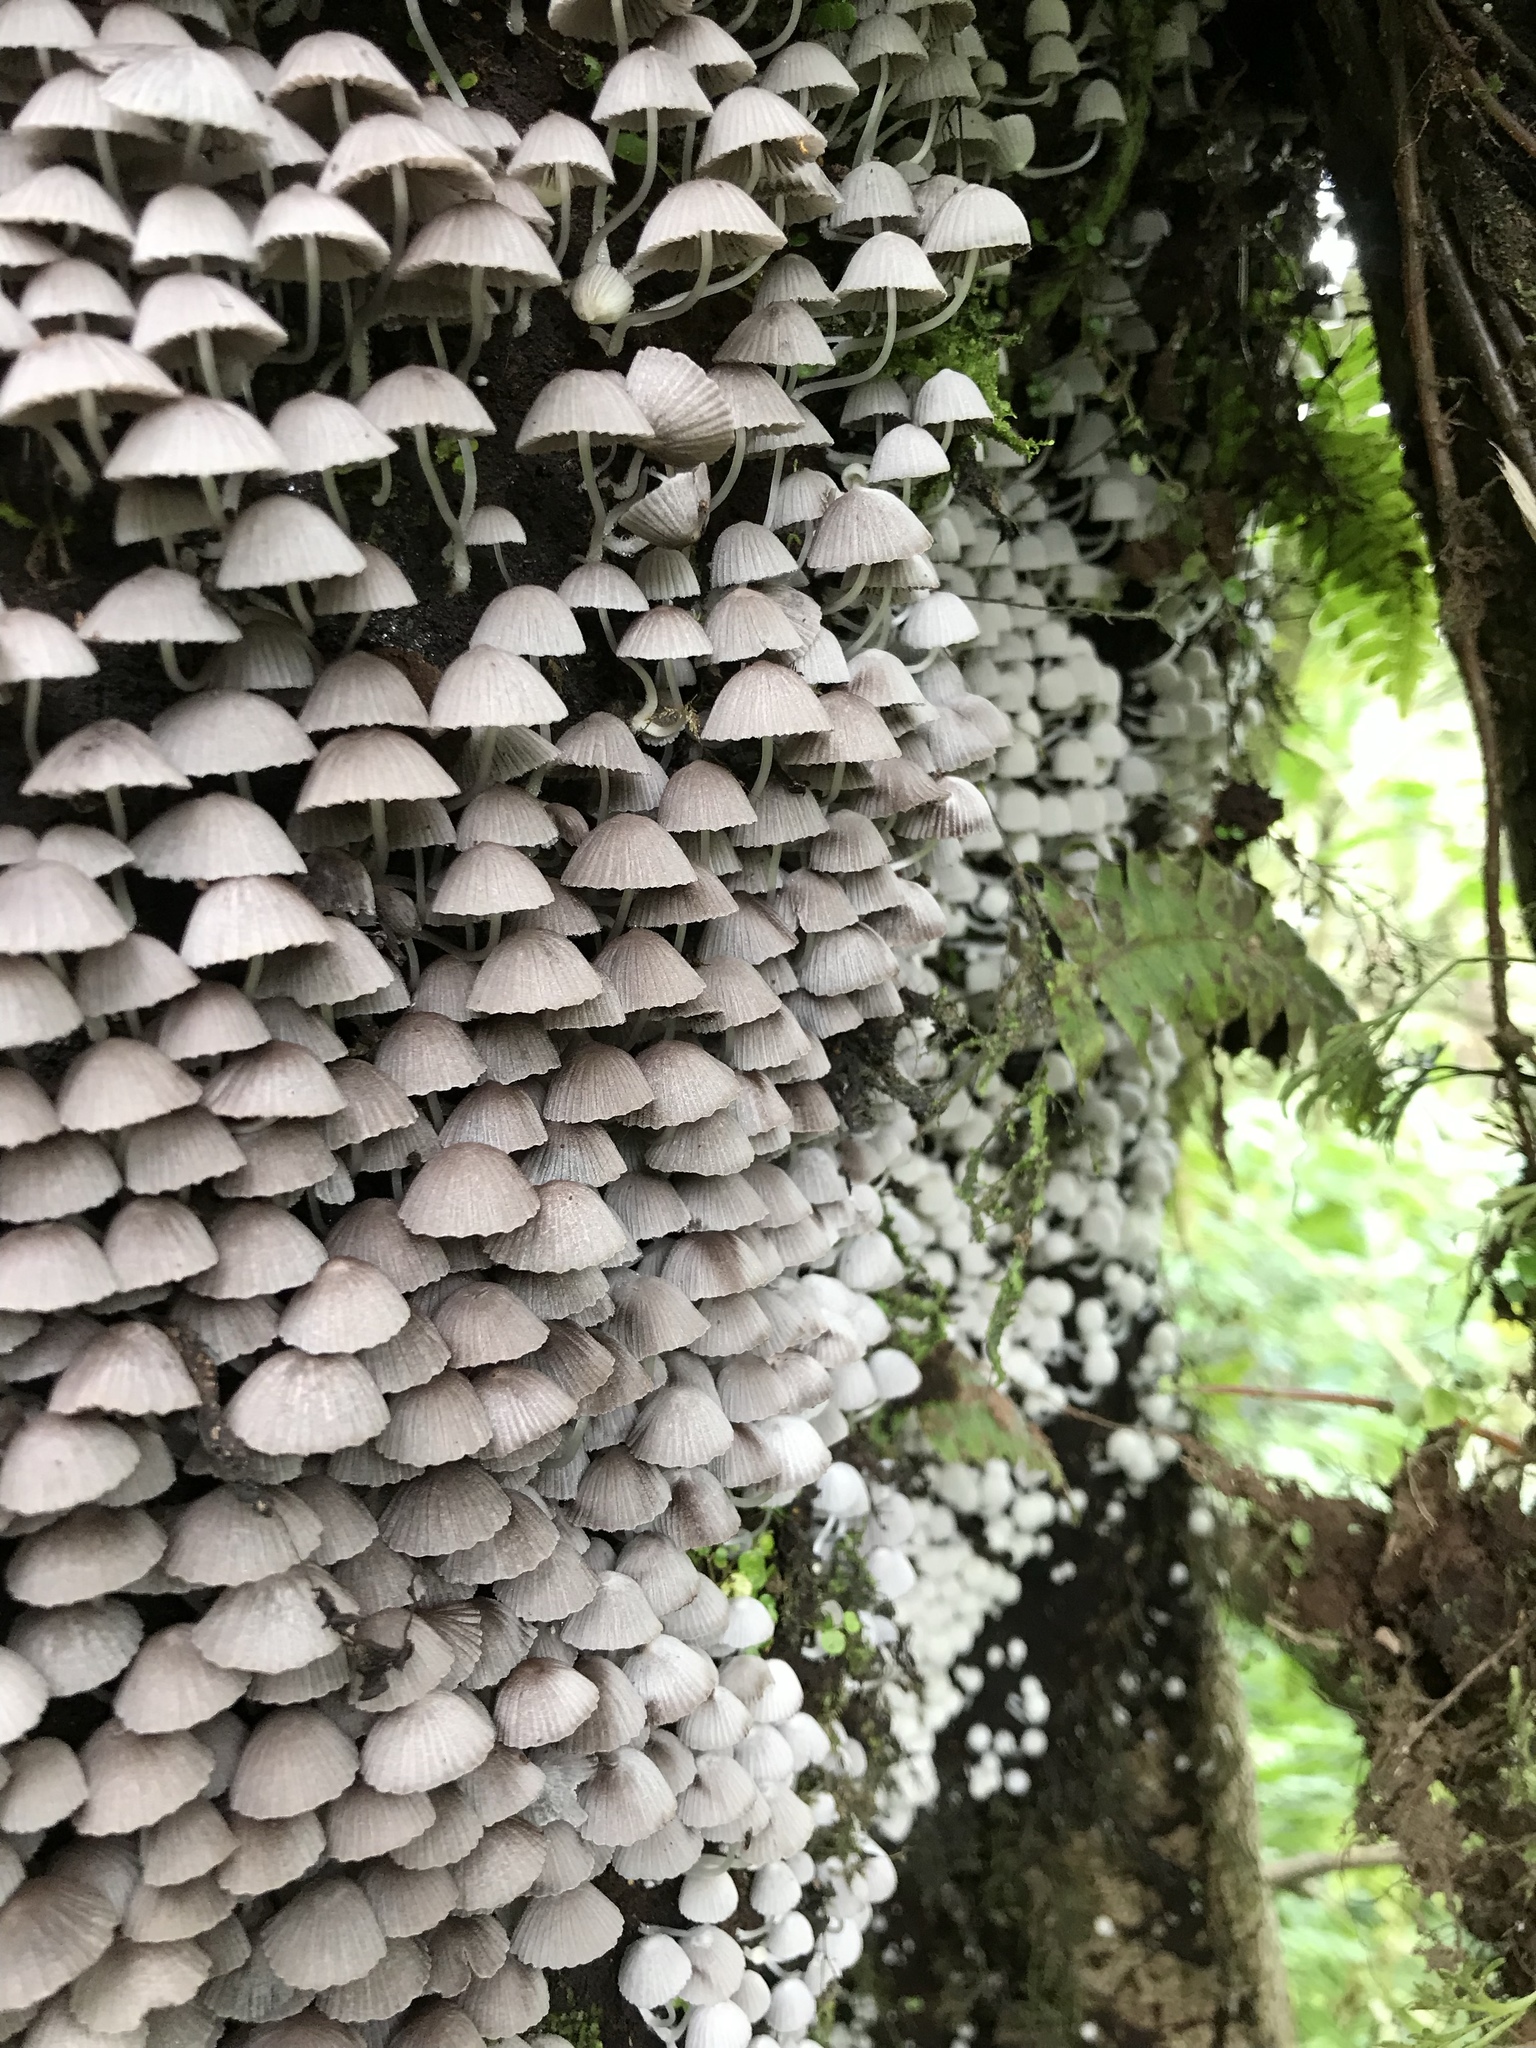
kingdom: Fungi
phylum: Basidiomycota
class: Agaricomycetes
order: Agaricales
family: Psathyrellaceae
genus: Coprinellus
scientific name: Coprinellus disseminatus
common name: Fairies' bonnets
